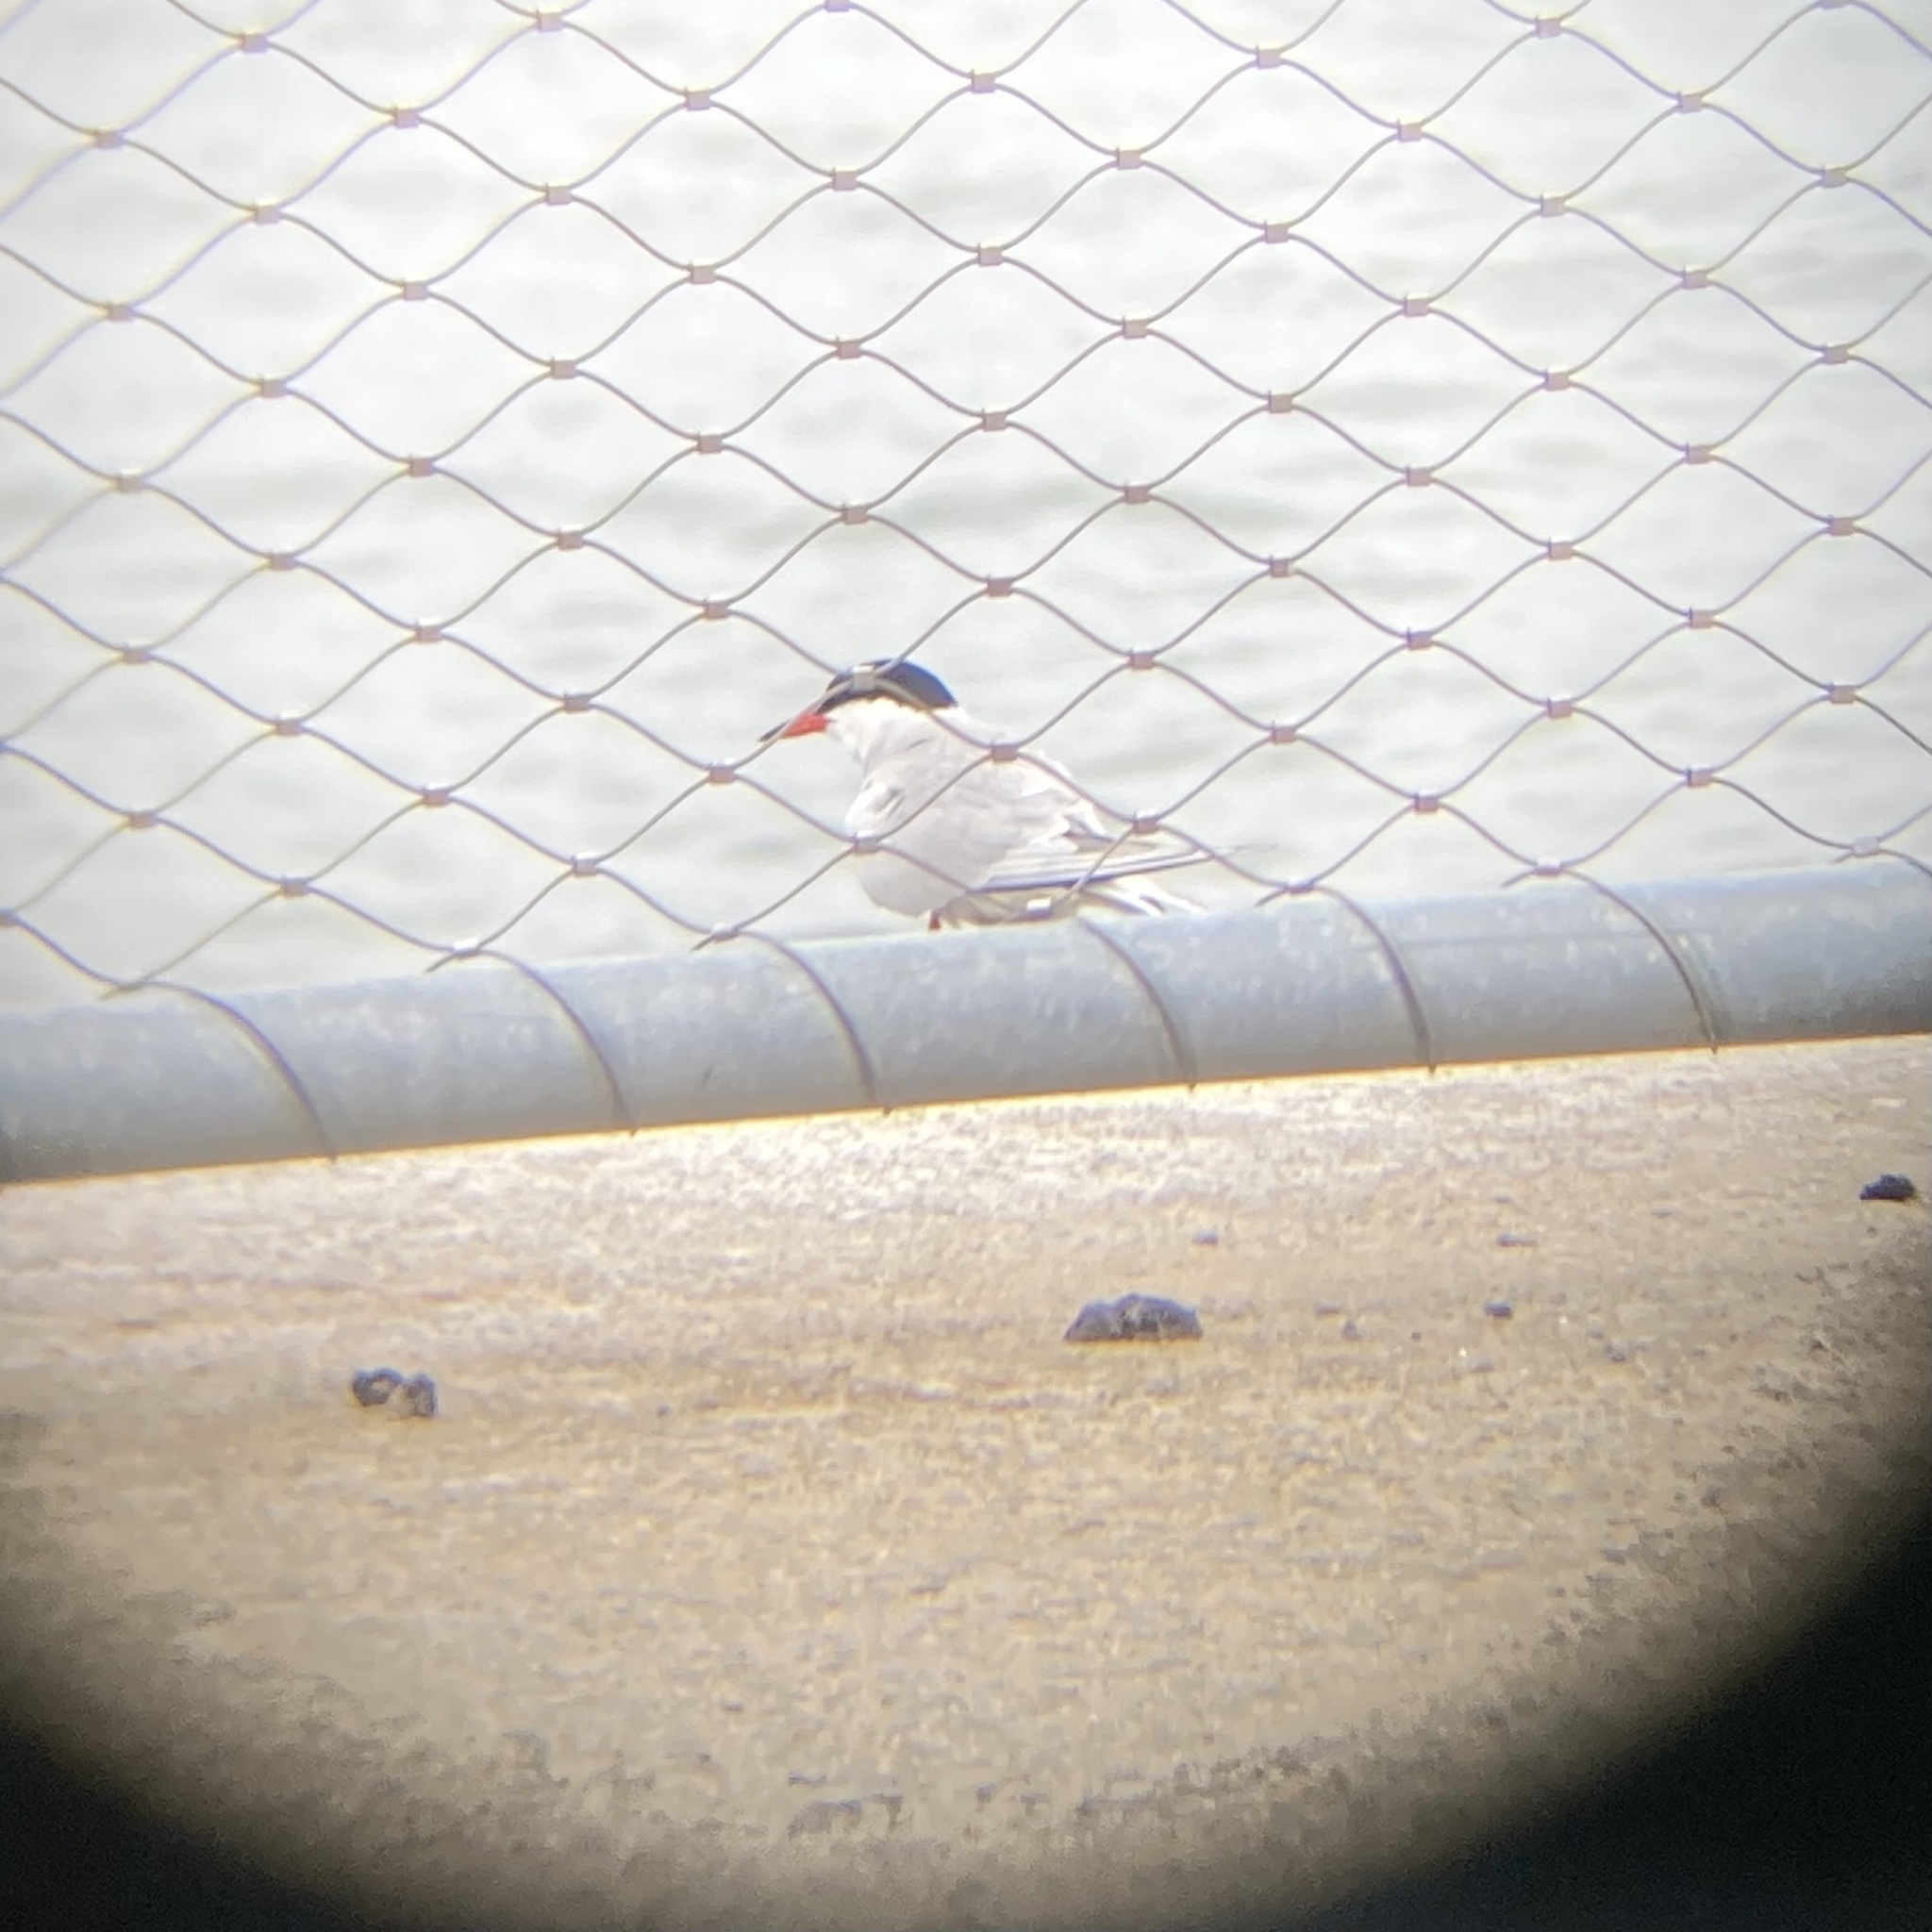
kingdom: Animalia
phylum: Chordata
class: Aves
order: Charadriiformes
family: Laridae
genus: Sterna
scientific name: Sterna hirundo
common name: Common tern
